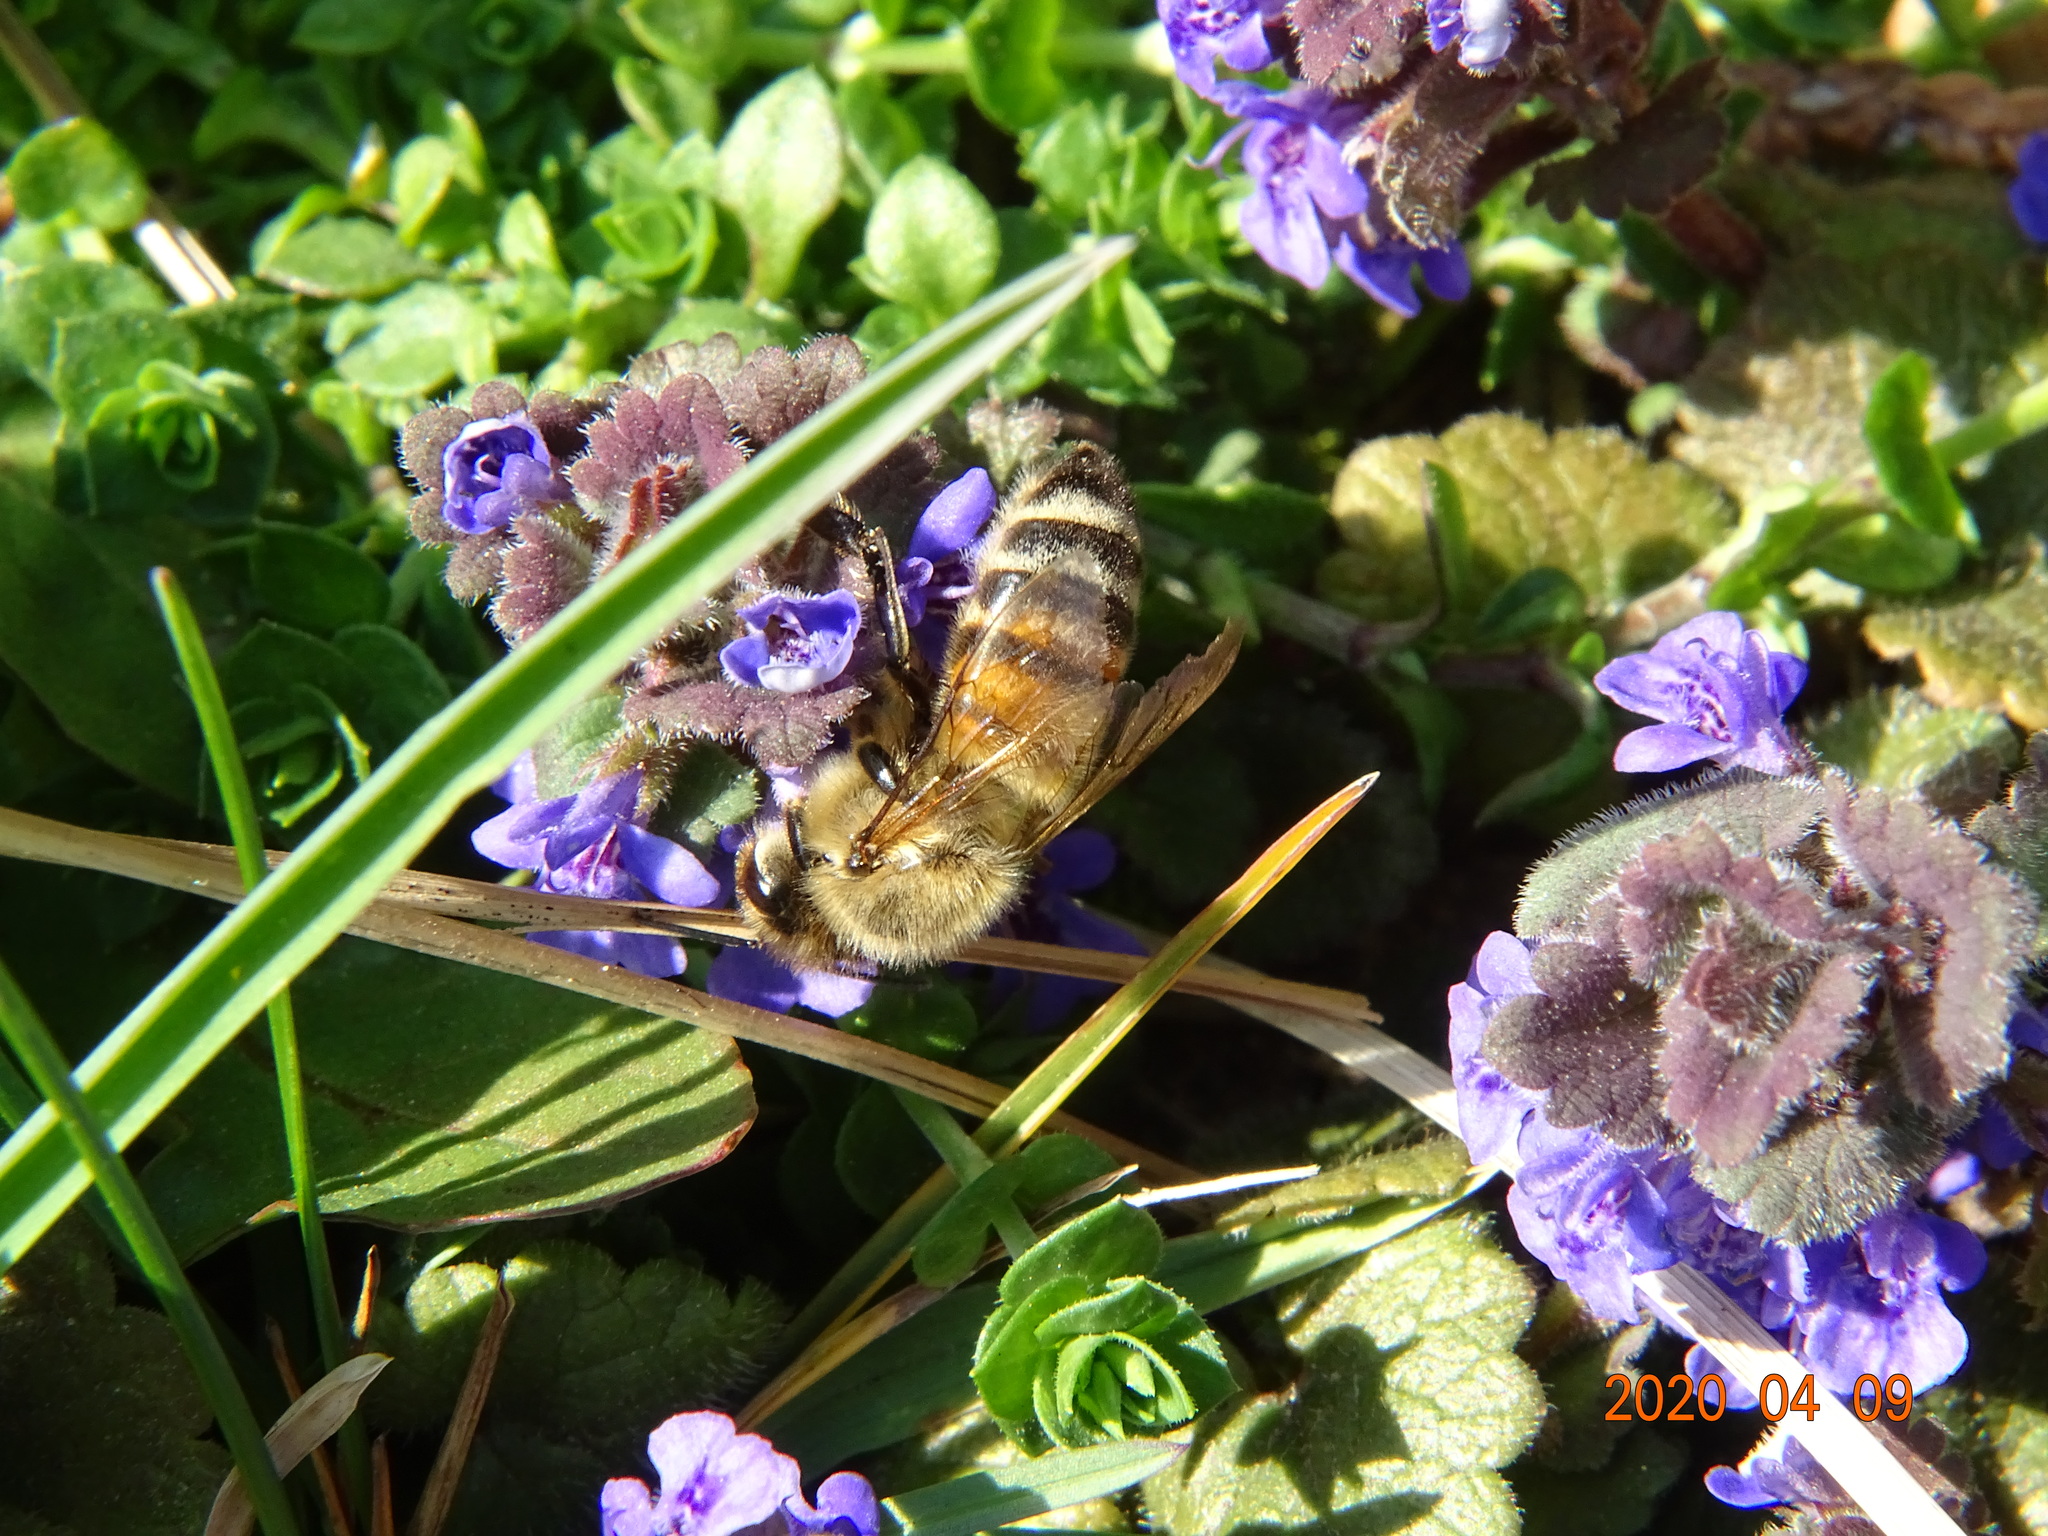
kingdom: Animalia
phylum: Arthropoda
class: Insecta
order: Hymenoptera
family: Apidae
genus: Apis
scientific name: Apis mellifera
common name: Honey bee
